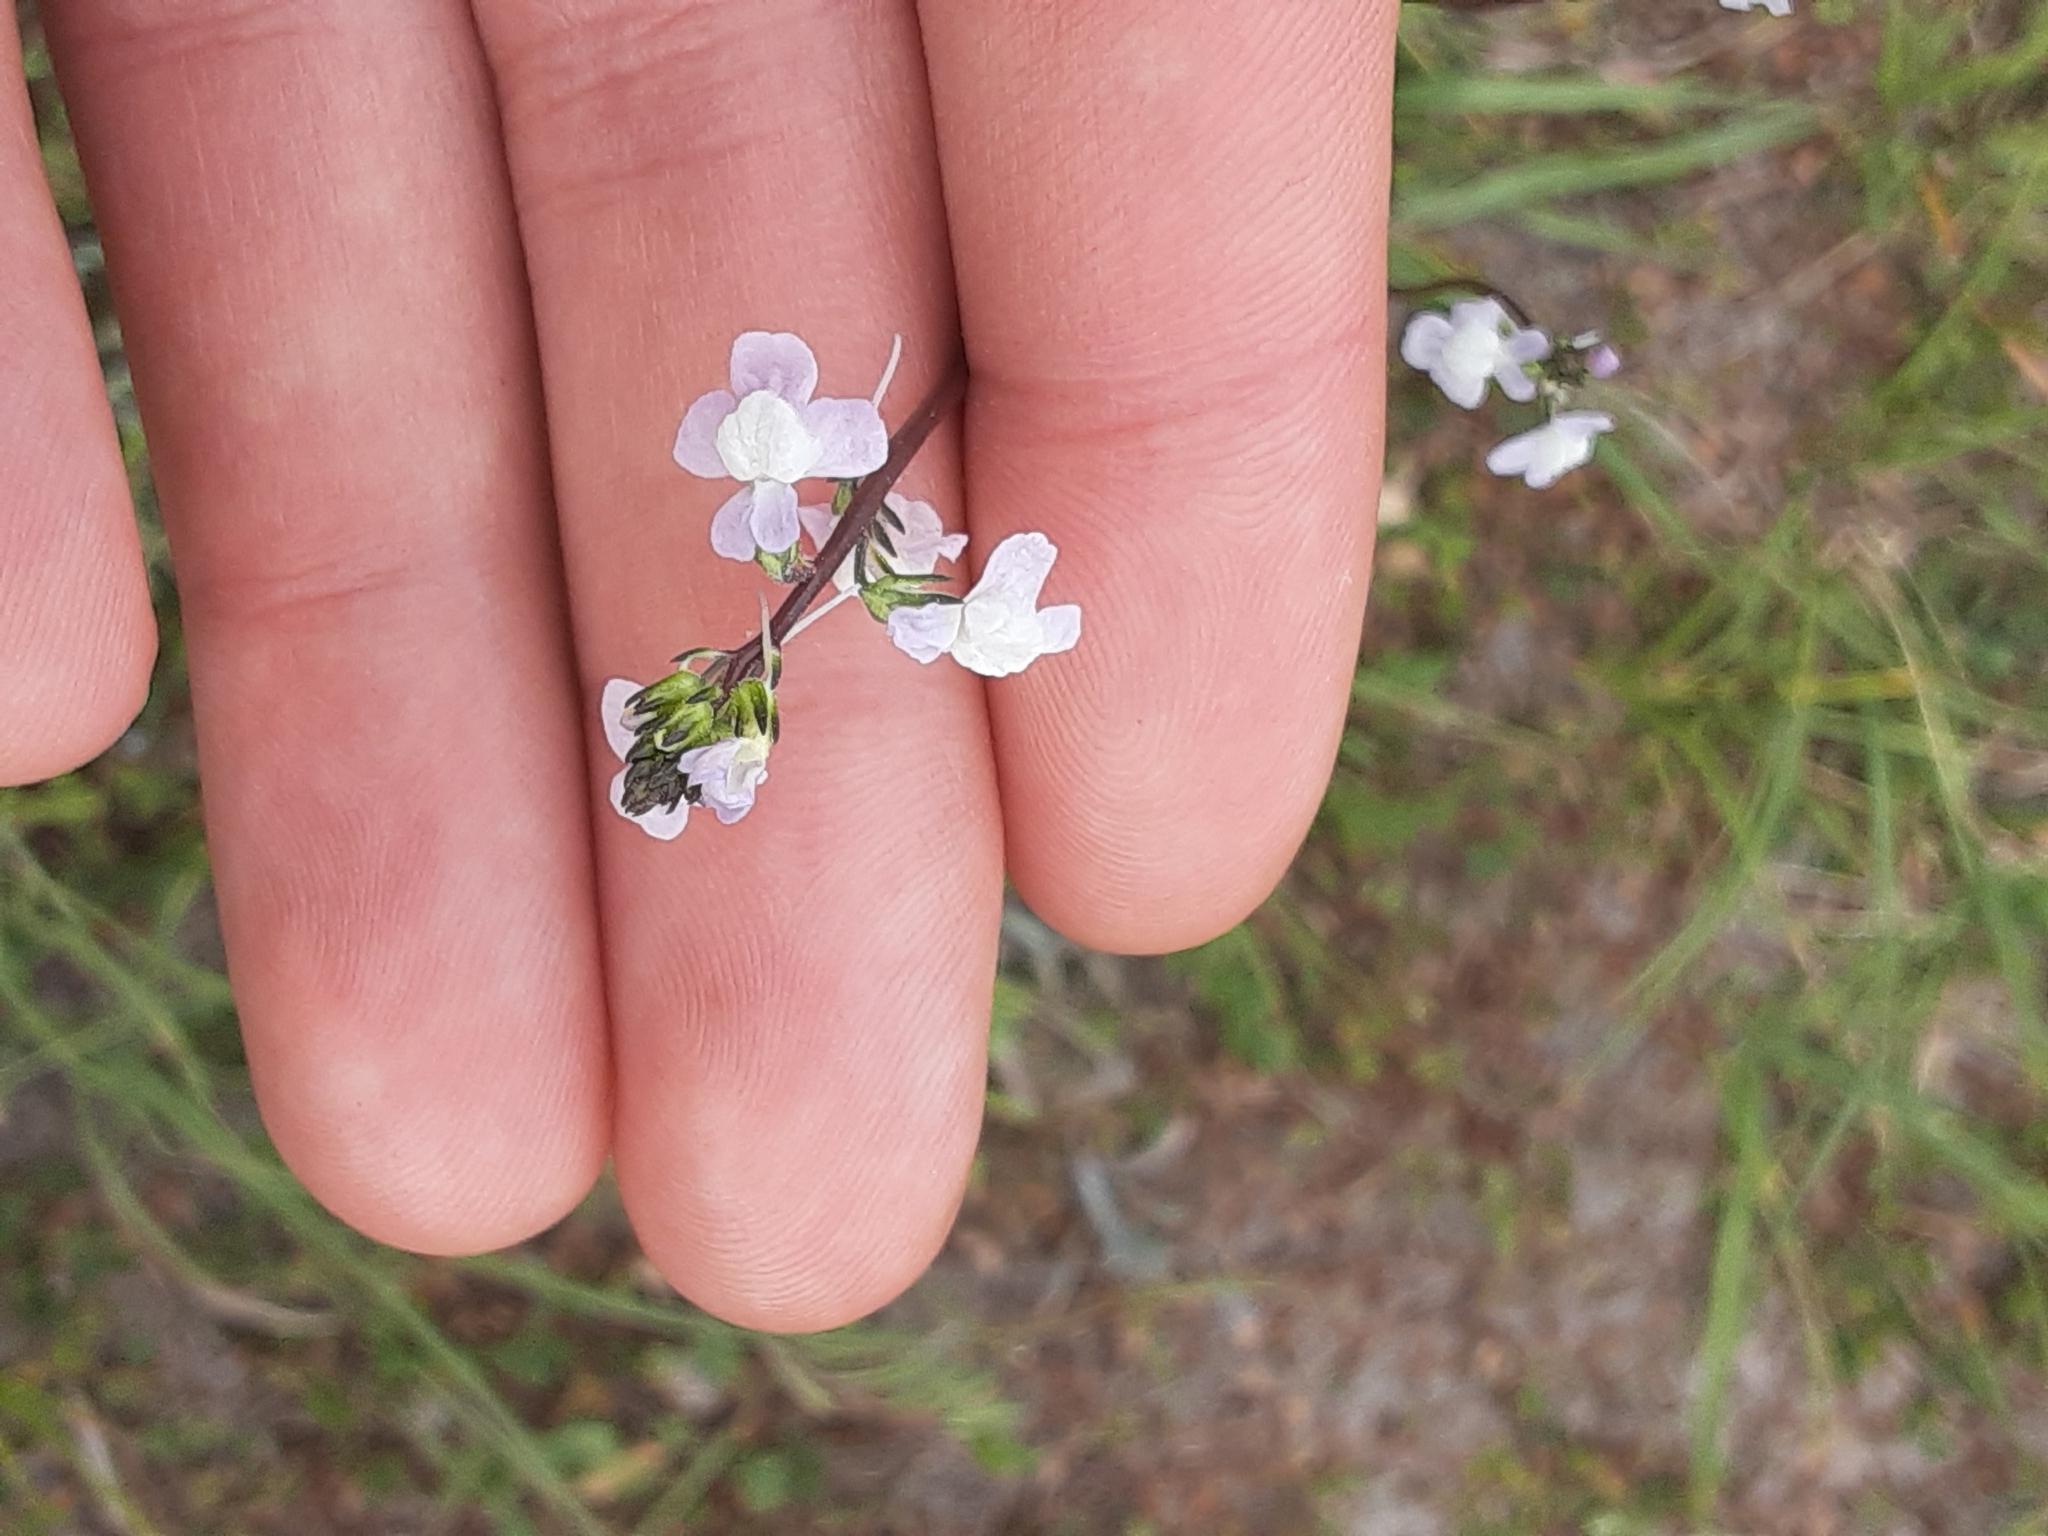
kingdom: Plantae
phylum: Tracheophyta
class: Magnoliopsida
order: Lamiales
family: Plantaginaceae
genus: Nuttallanthus
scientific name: Nuttallanthus canadensis
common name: Blue toadflax
